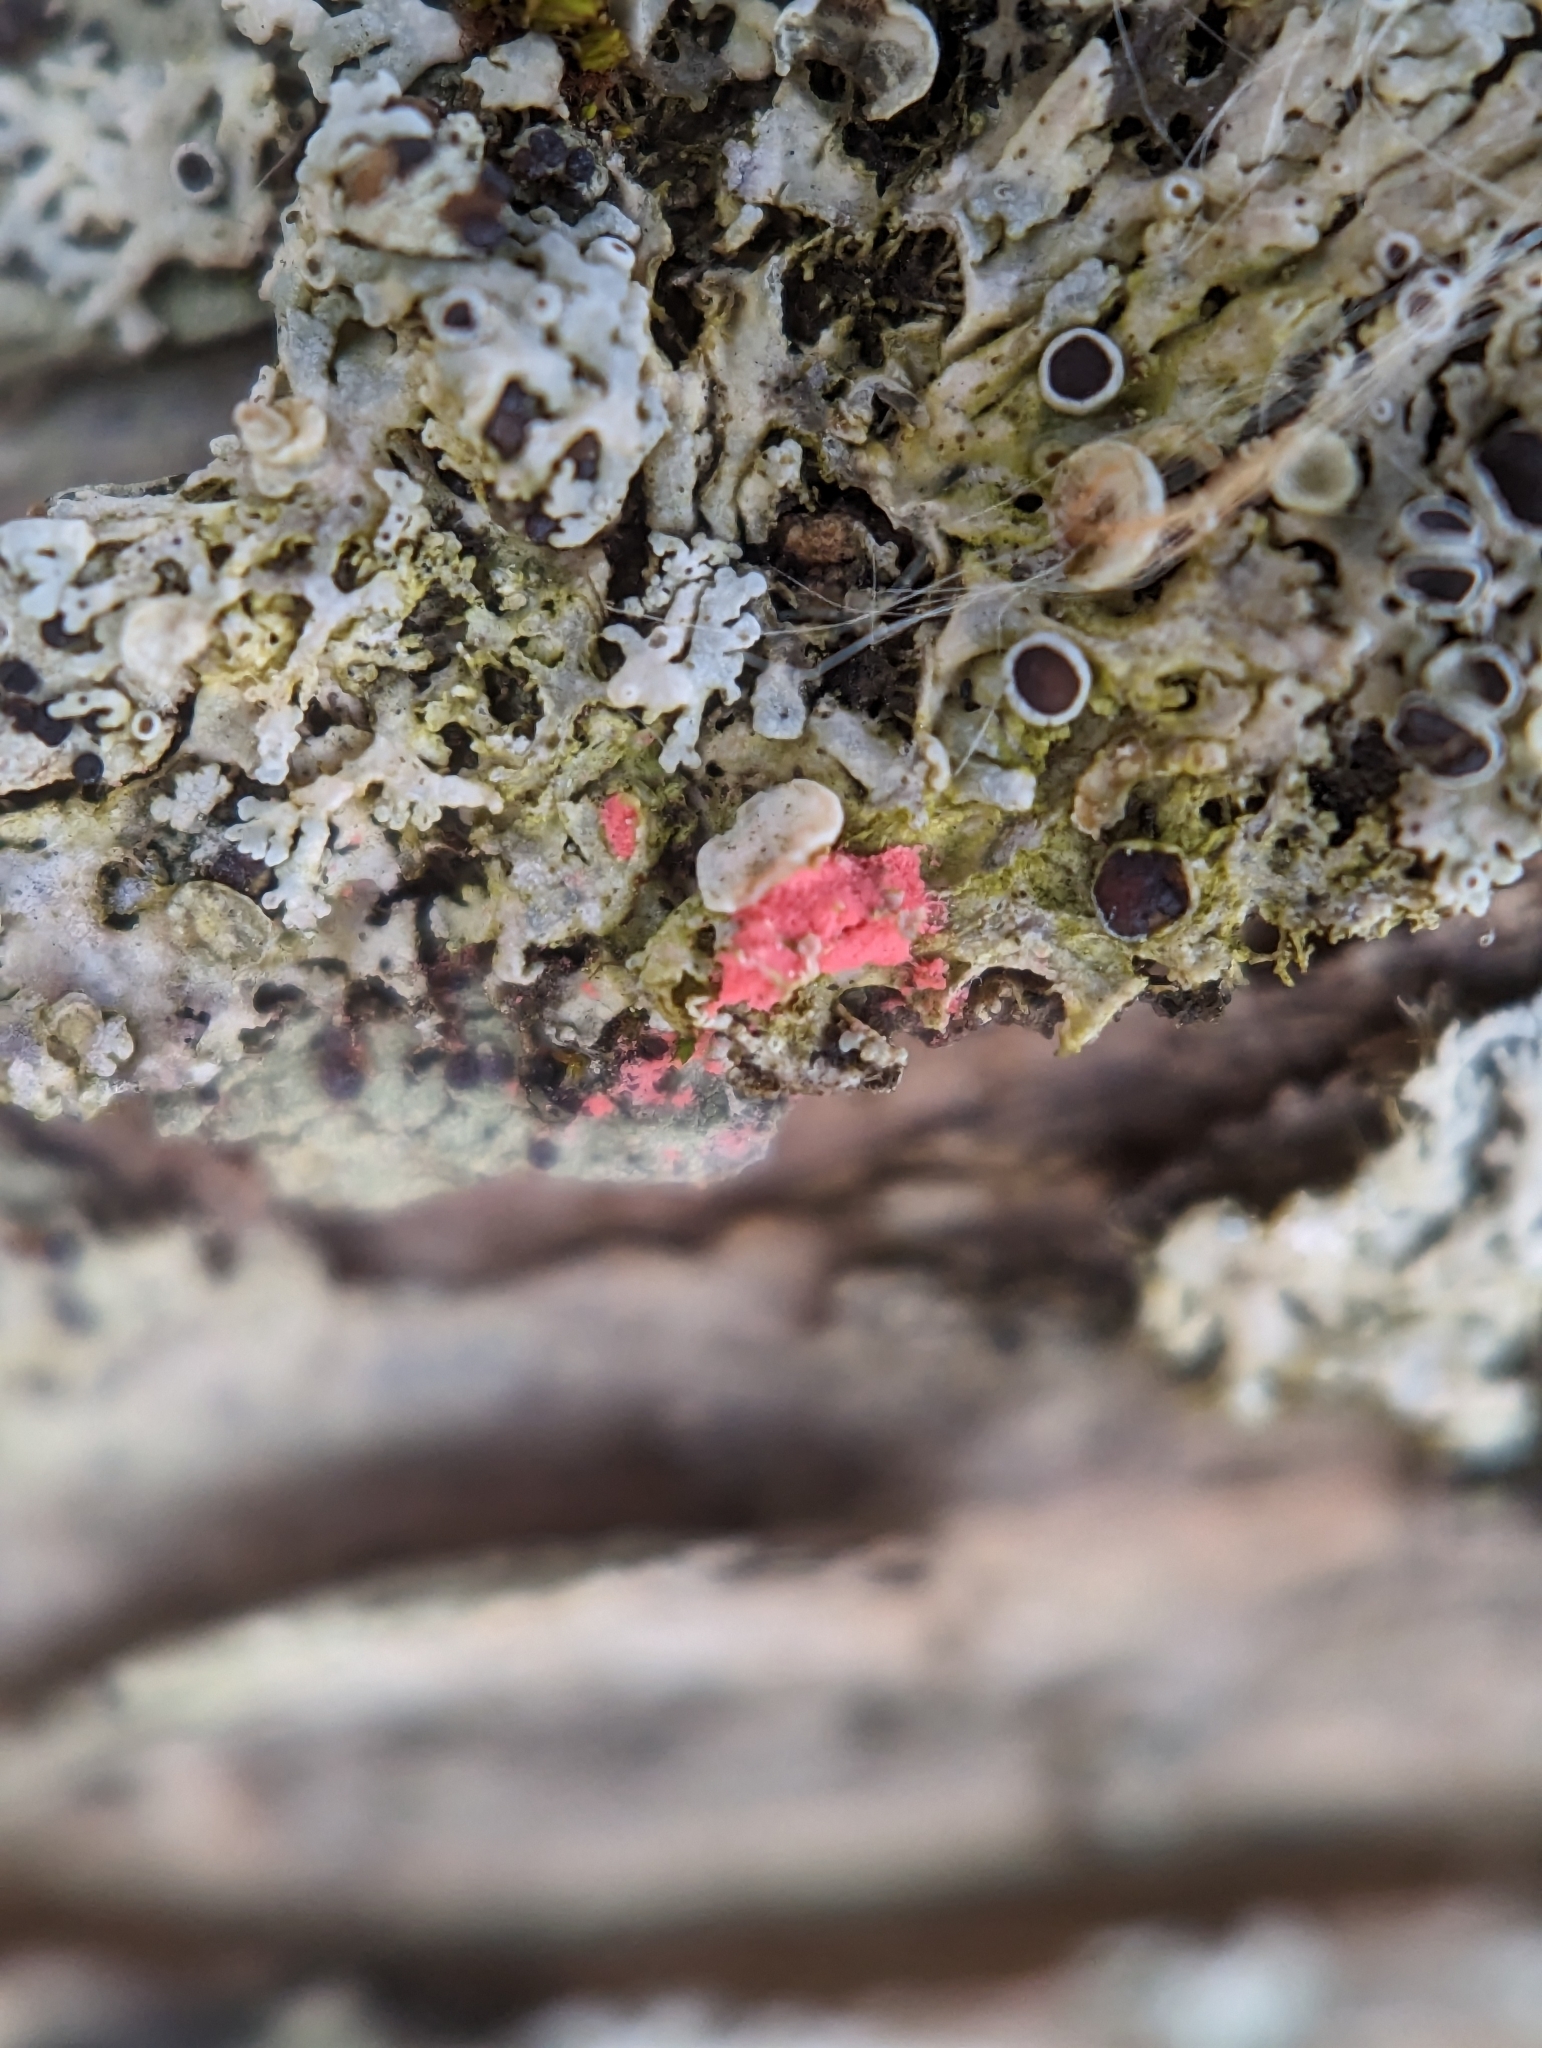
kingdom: Fungi
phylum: Ascomycota
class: Sordariomycetes
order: Hypocreales
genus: Illosporiopsis
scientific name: Illosporiopsis christiansenii
